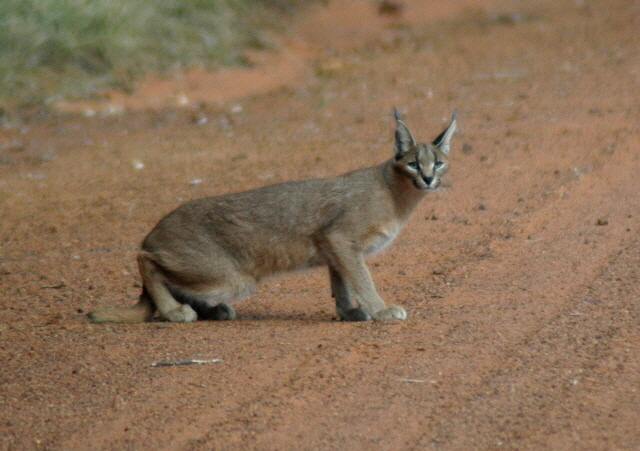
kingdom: Animalia
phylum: Chordata
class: Mammalia
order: Carnivora
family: Felidae
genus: Caracal
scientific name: Caracal caracal
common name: Caracal
